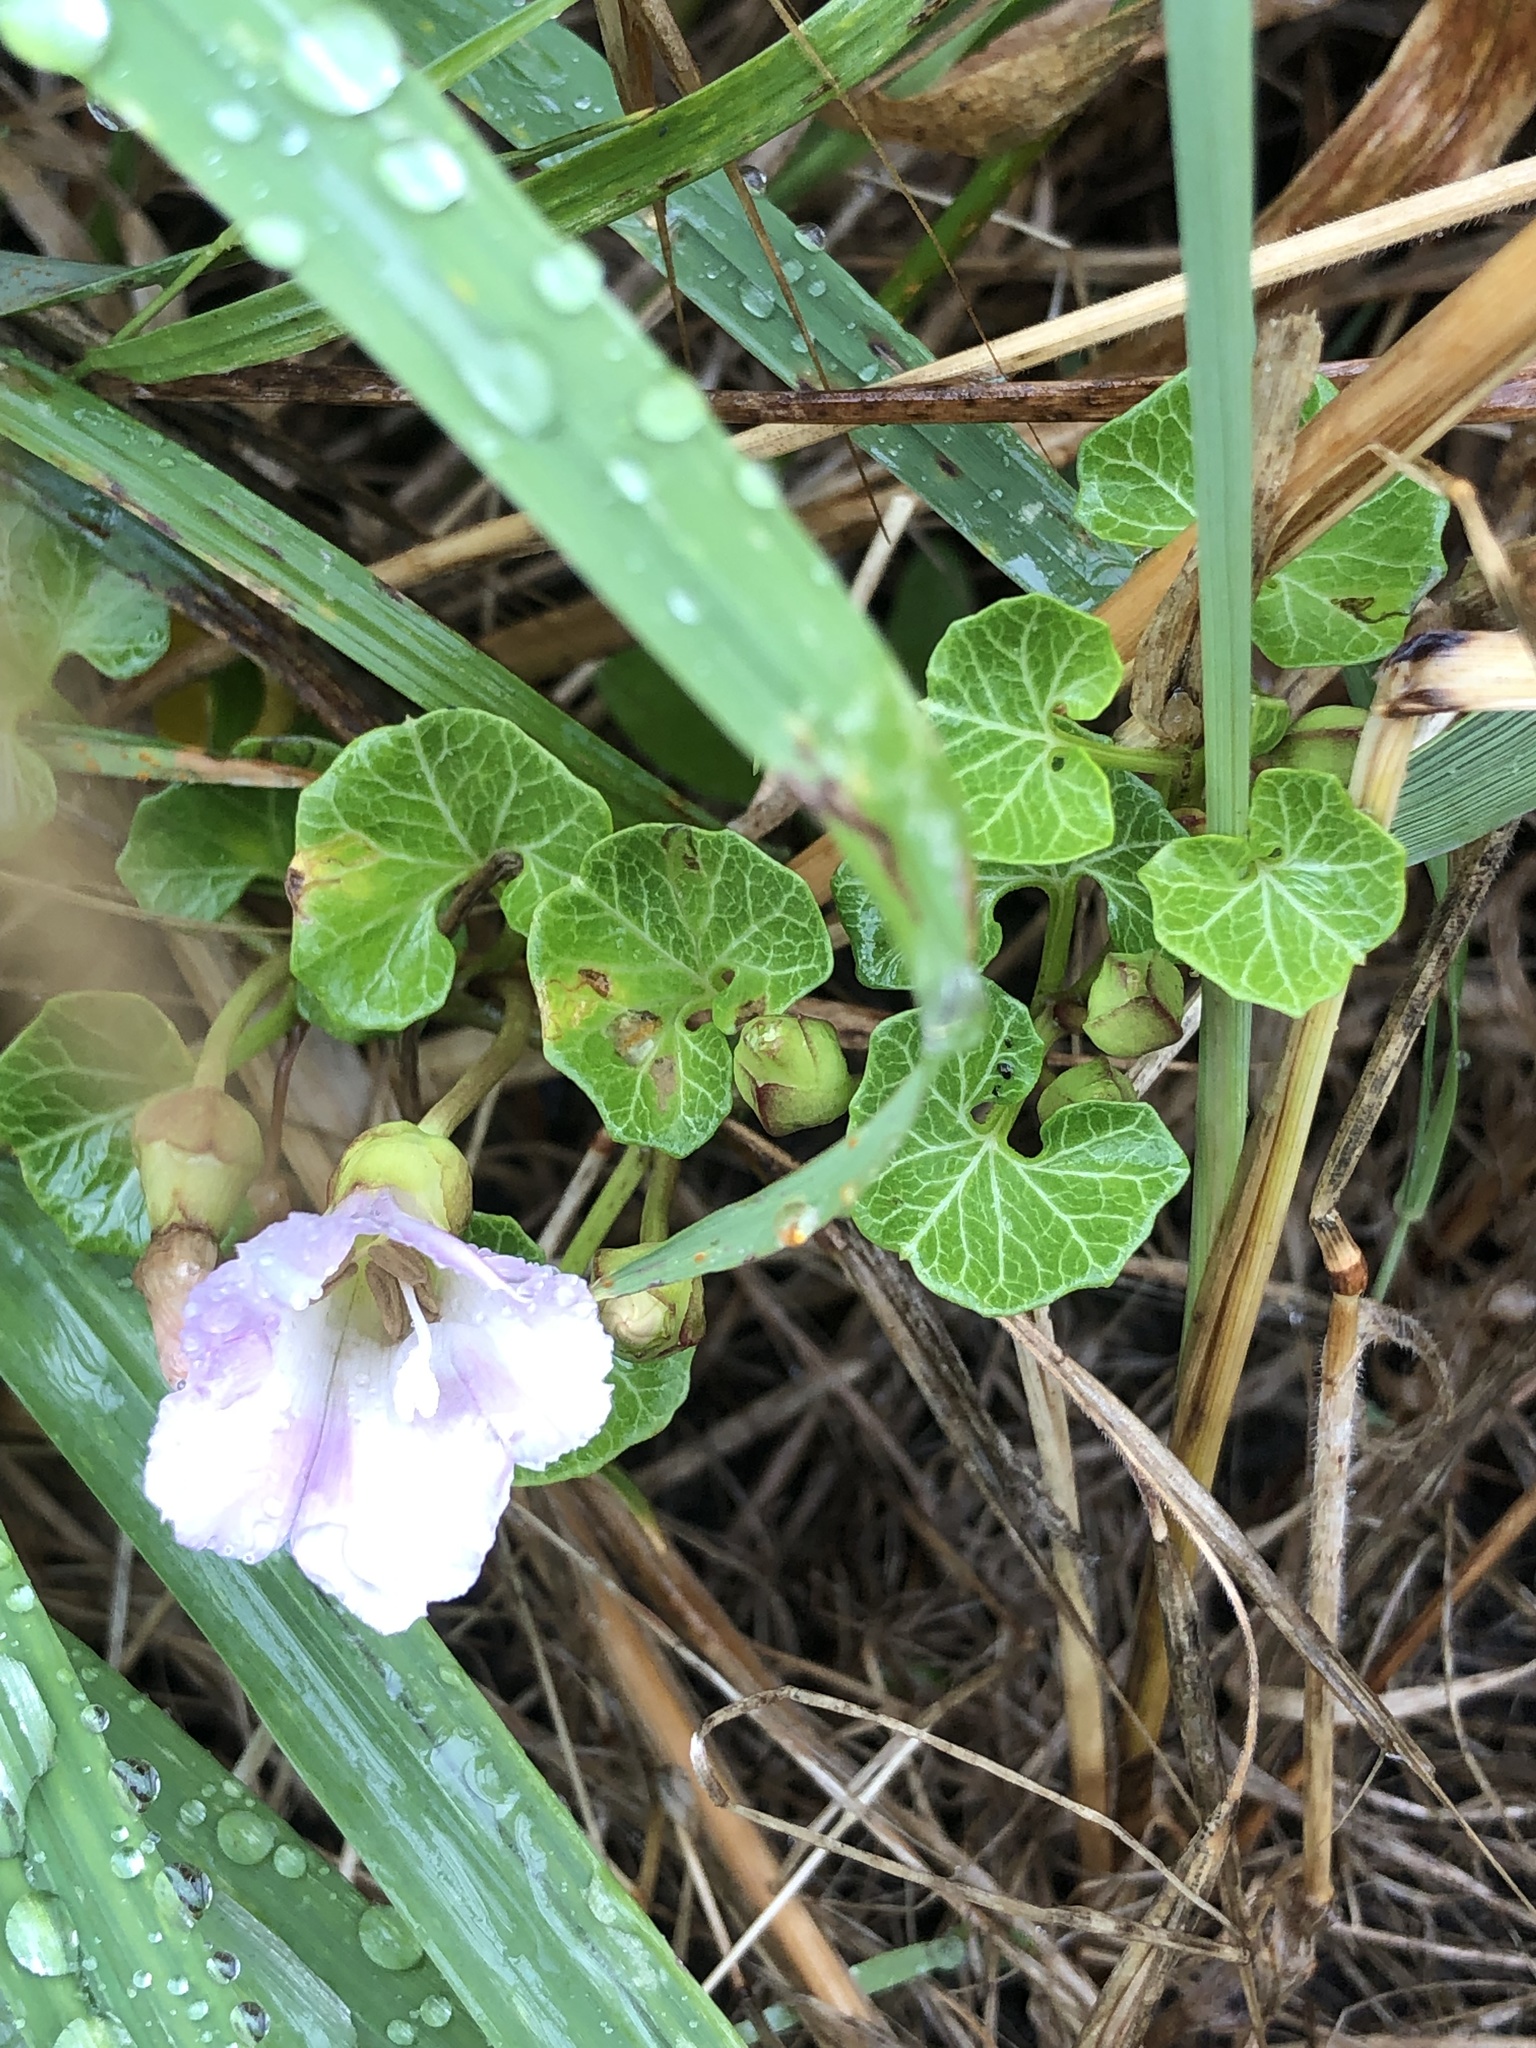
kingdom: Plantae
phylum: Tracheophyta
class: Magnoliopsida
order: Solanales
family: Convolvulaceae
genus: Calystegia
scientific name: Calystegia soldanella
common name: Sea bindweed
